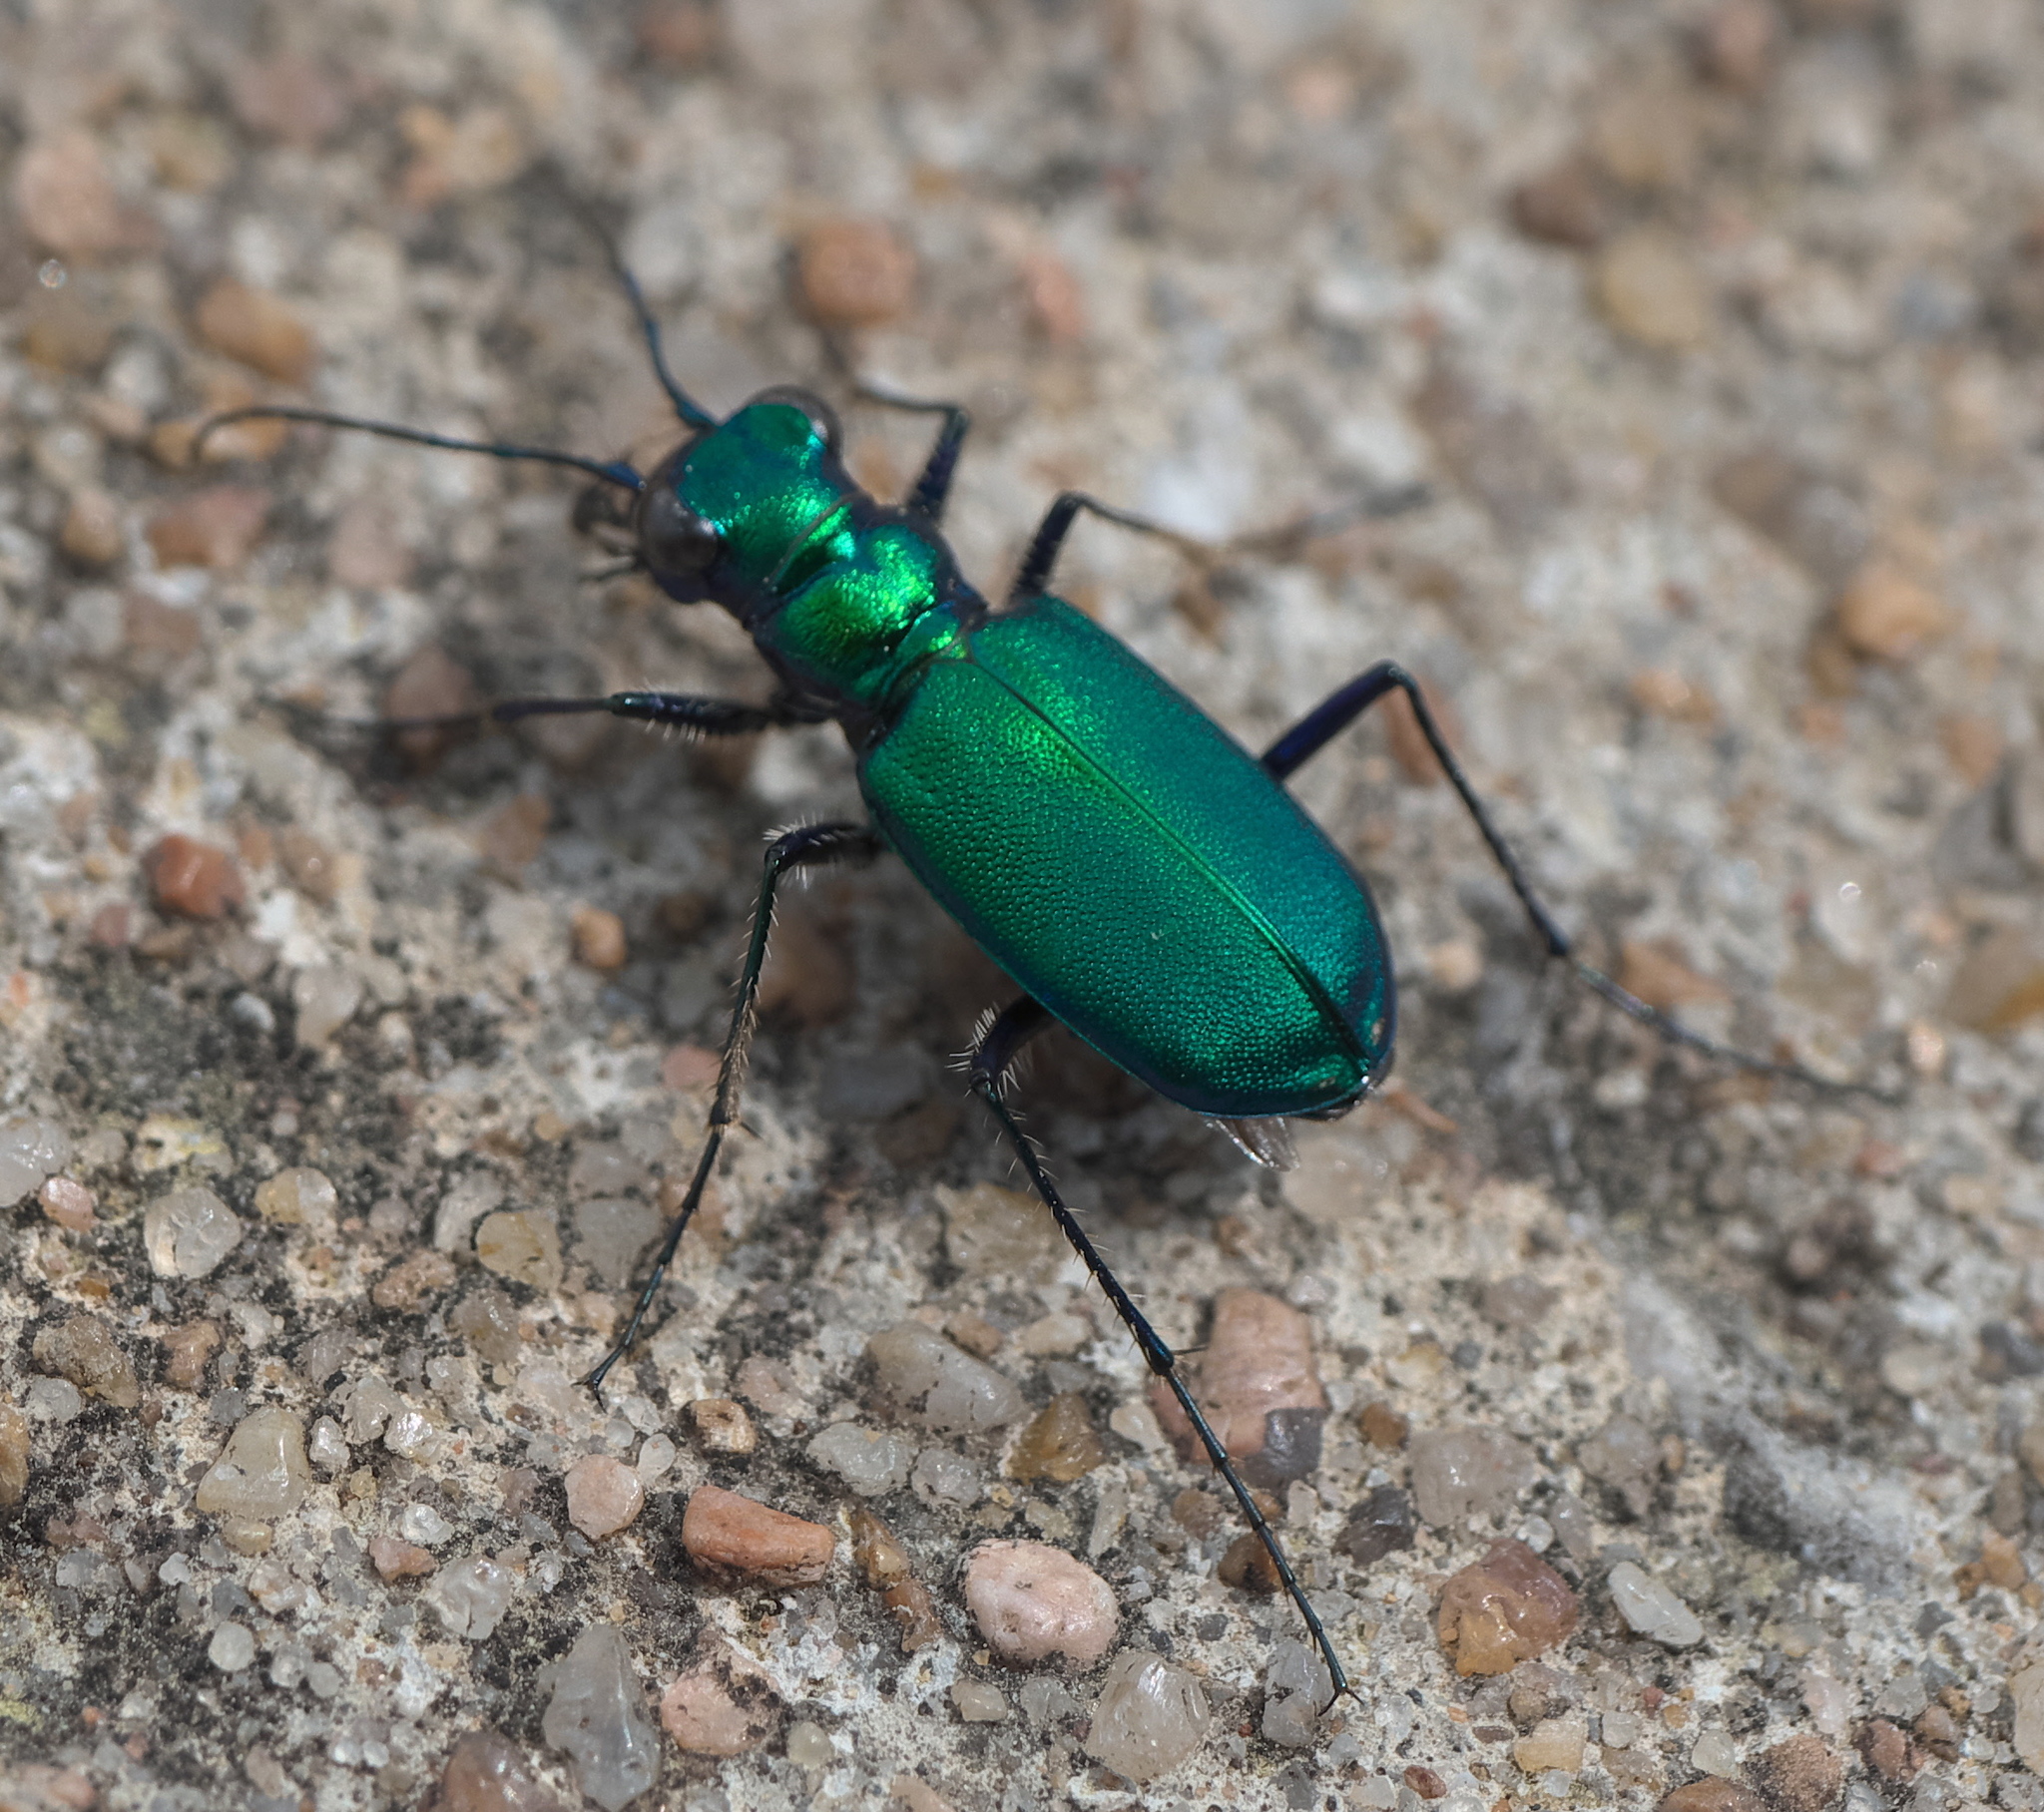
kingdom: Animalia
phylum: Arthropoda
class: Insecta
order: Coleoptera
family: Carabidae
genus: Cicindela
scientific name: Cicindela sexguttata
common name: Six-spotted tiger beetle
